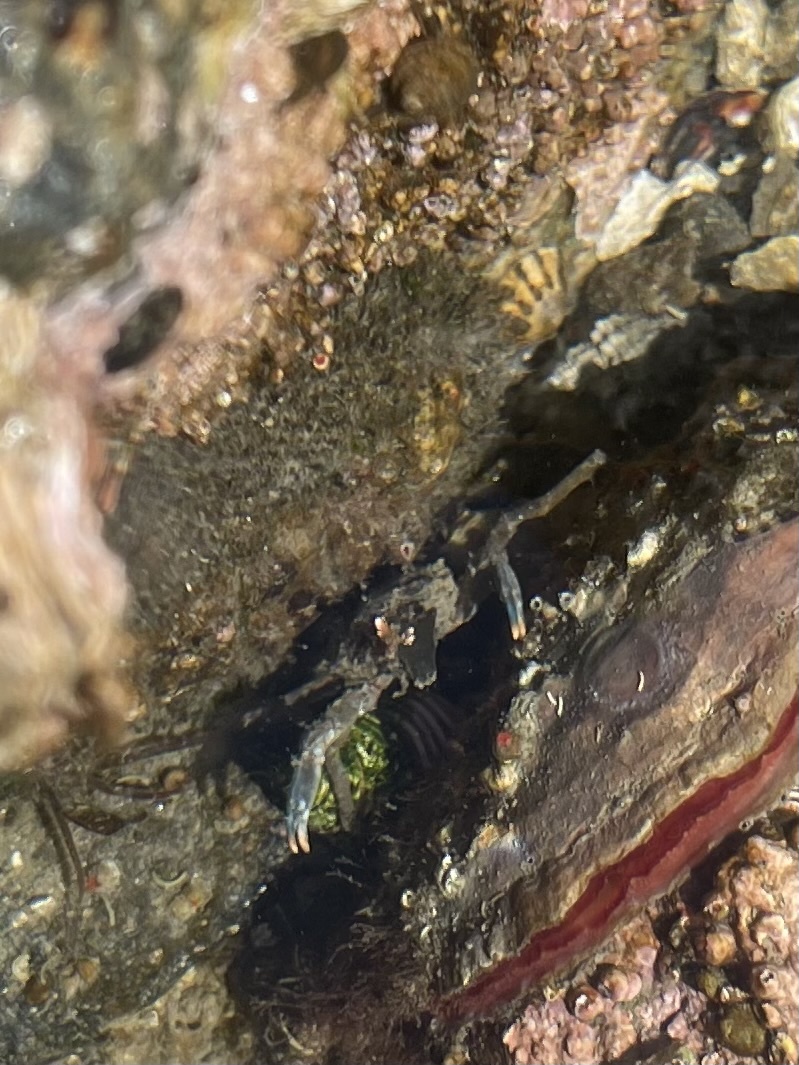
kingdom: Animalia
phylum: Arthropoda
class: Malacostraca
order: Decapoda
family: Epialtidae
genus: Pugettia
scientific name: Pugettia gracilis
